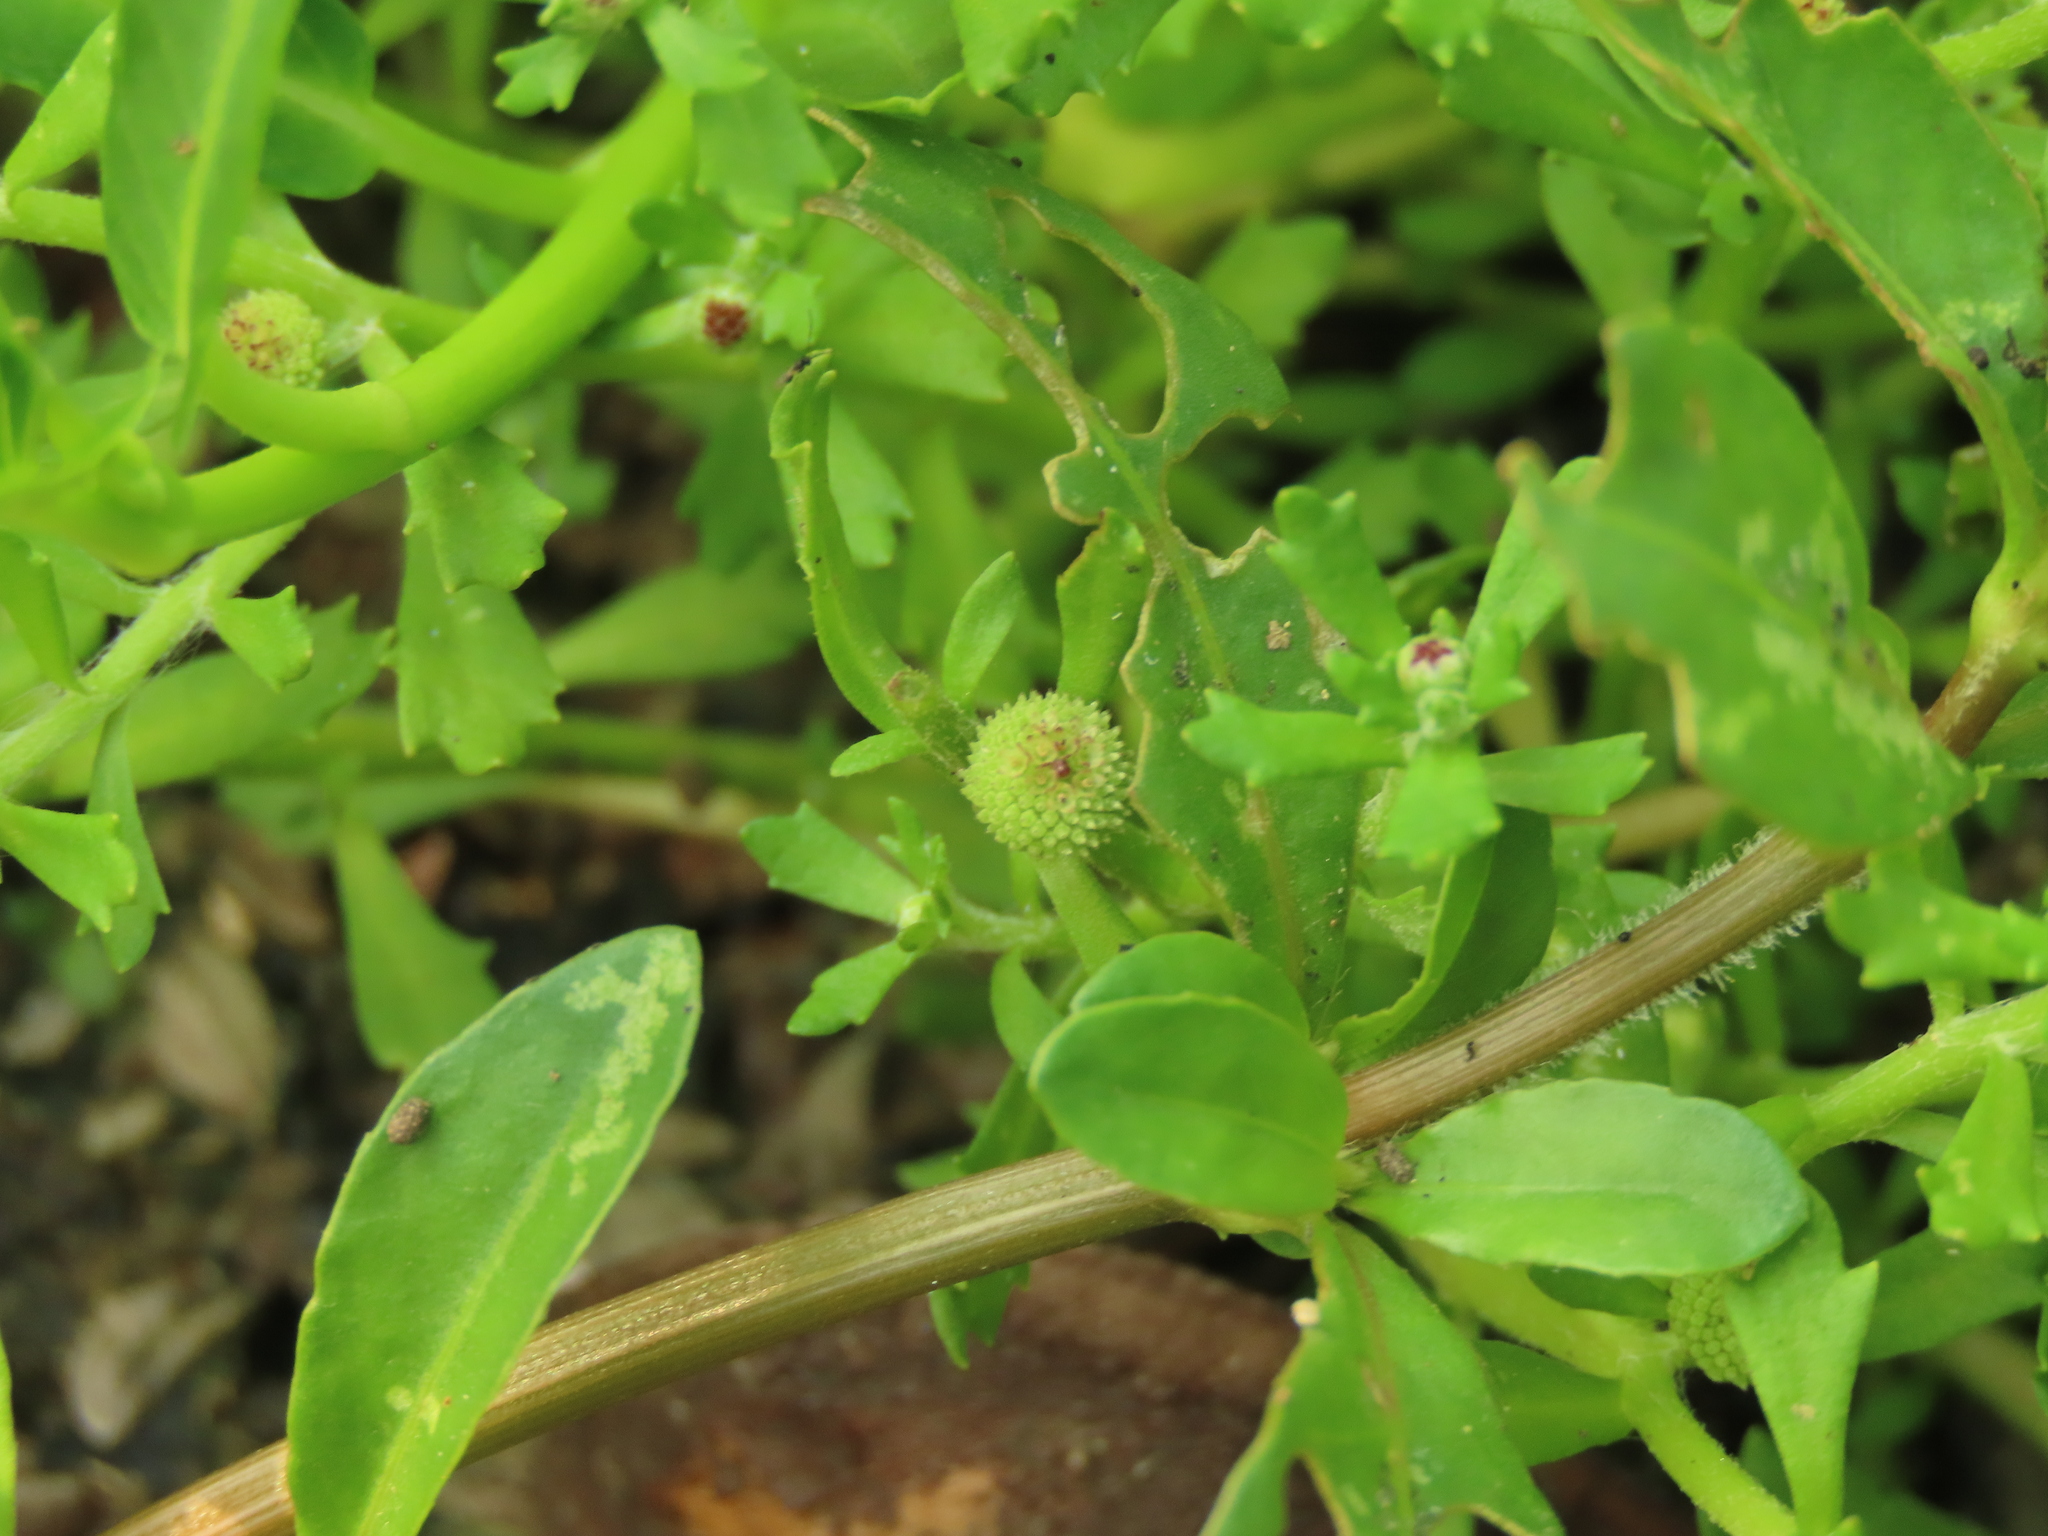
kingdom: Plantae
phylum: Tracheophyta
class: Magnoliopsida
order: Asterales
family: Asteraceae
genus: Centipeda
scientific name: Centipeda minima
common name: Spreading sneezeweed
